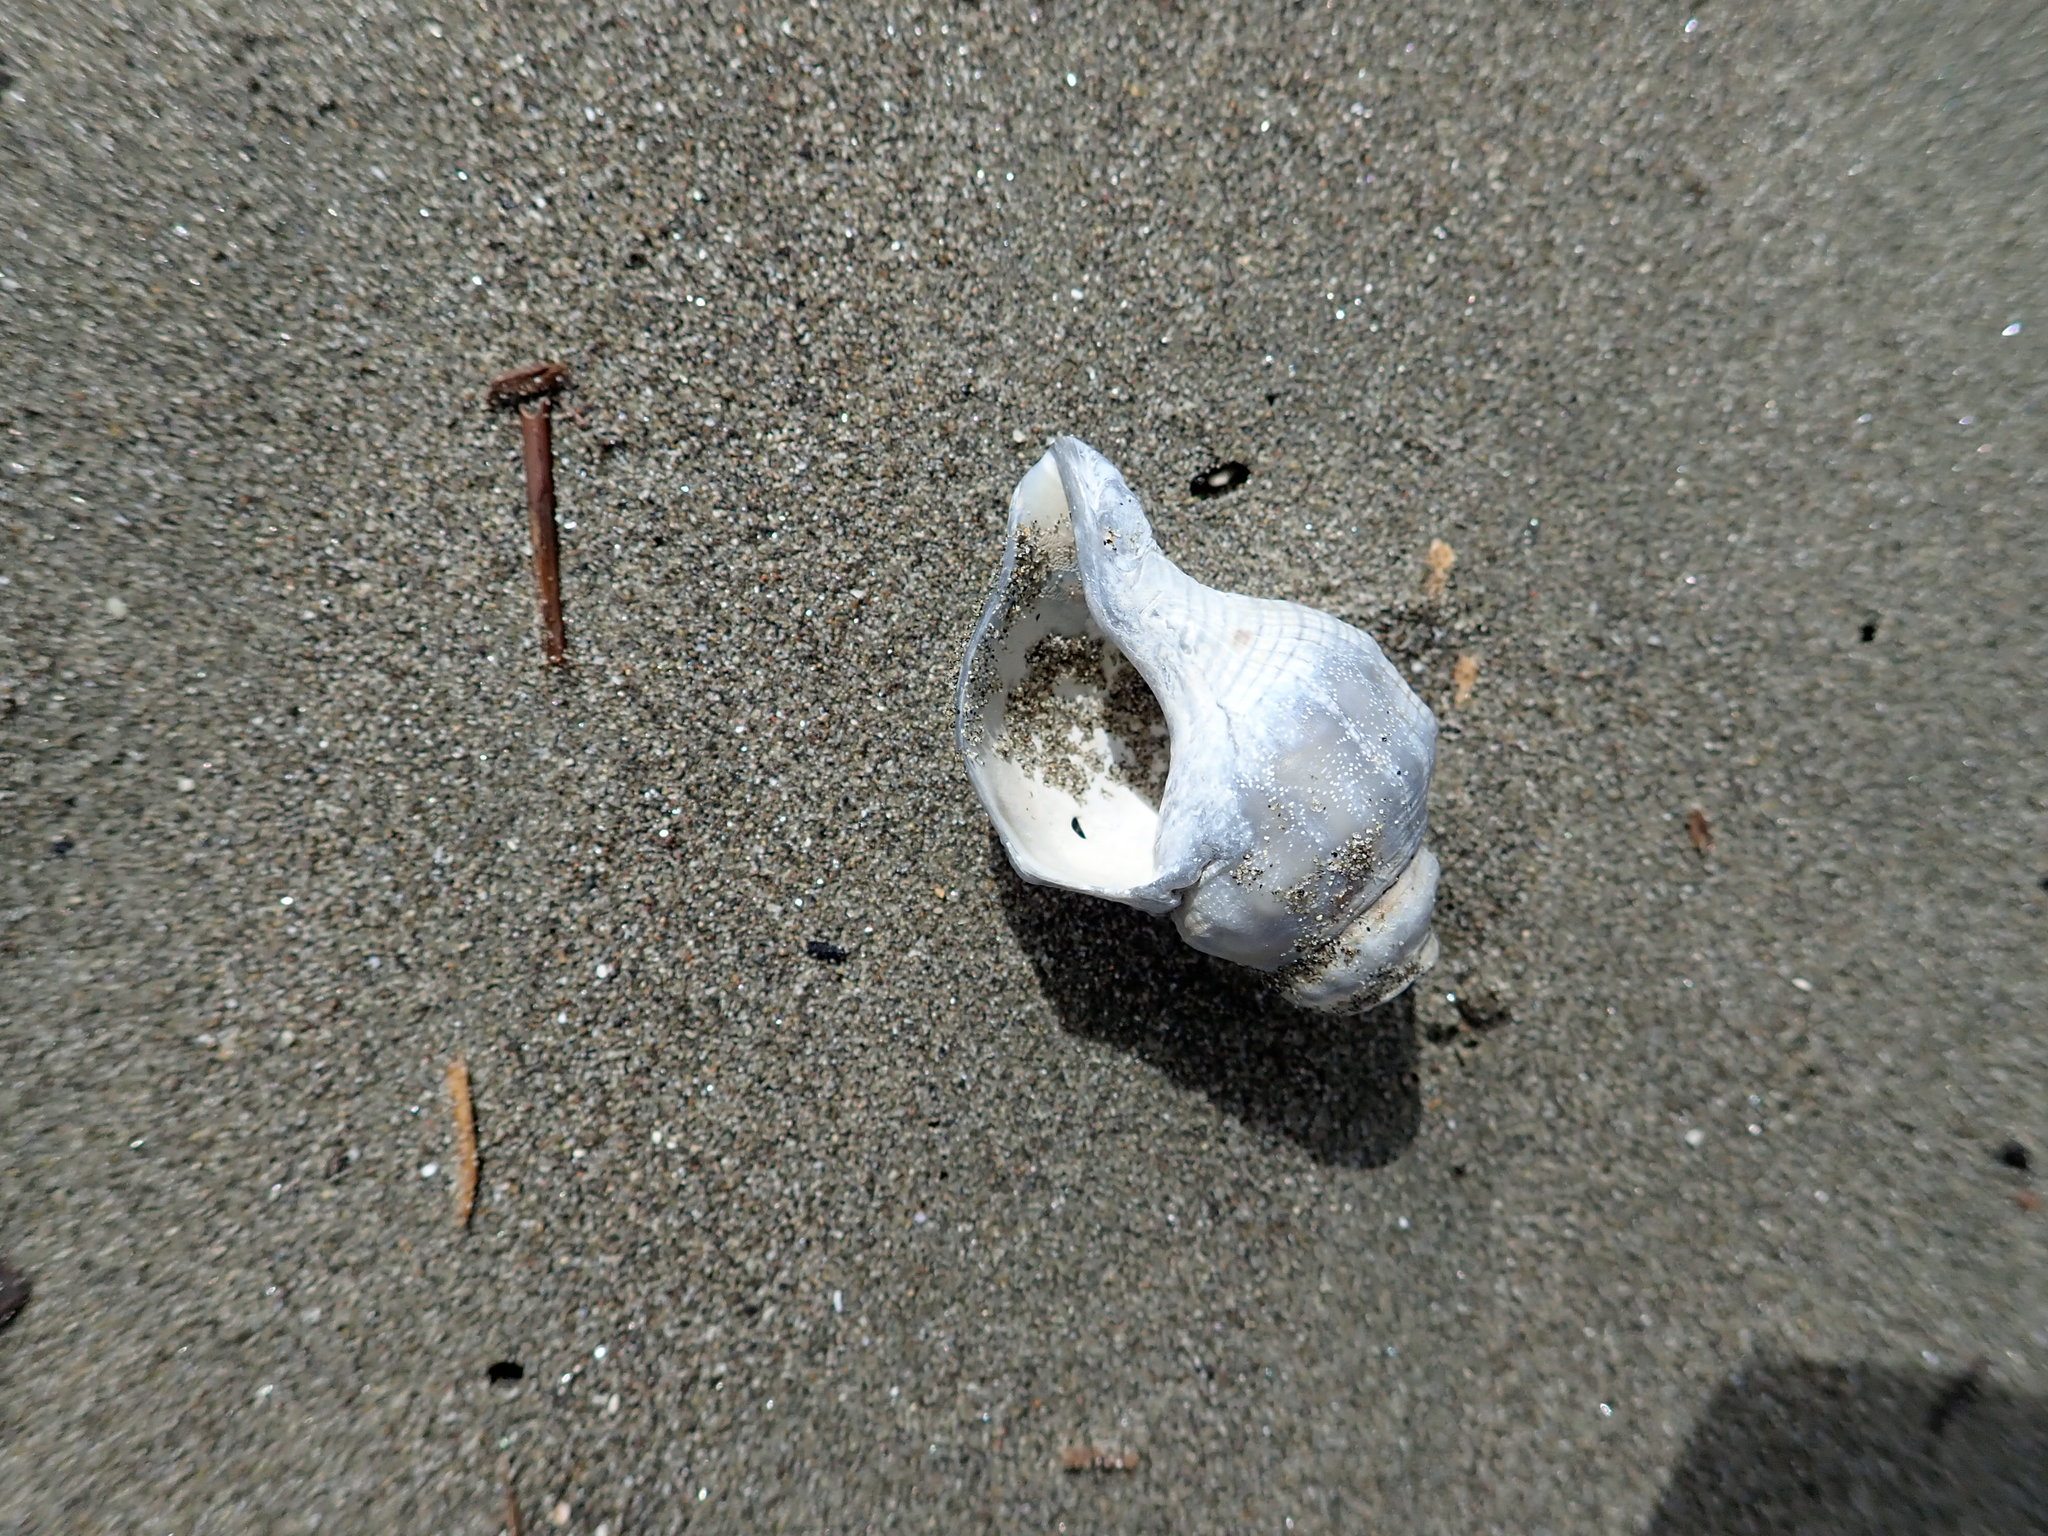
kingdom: Animalia
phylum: Mollusca
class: Gastropoda
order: Neogastropoda
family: Prosiphonidae
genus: Austrofusus
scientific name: Austrofusus glans
